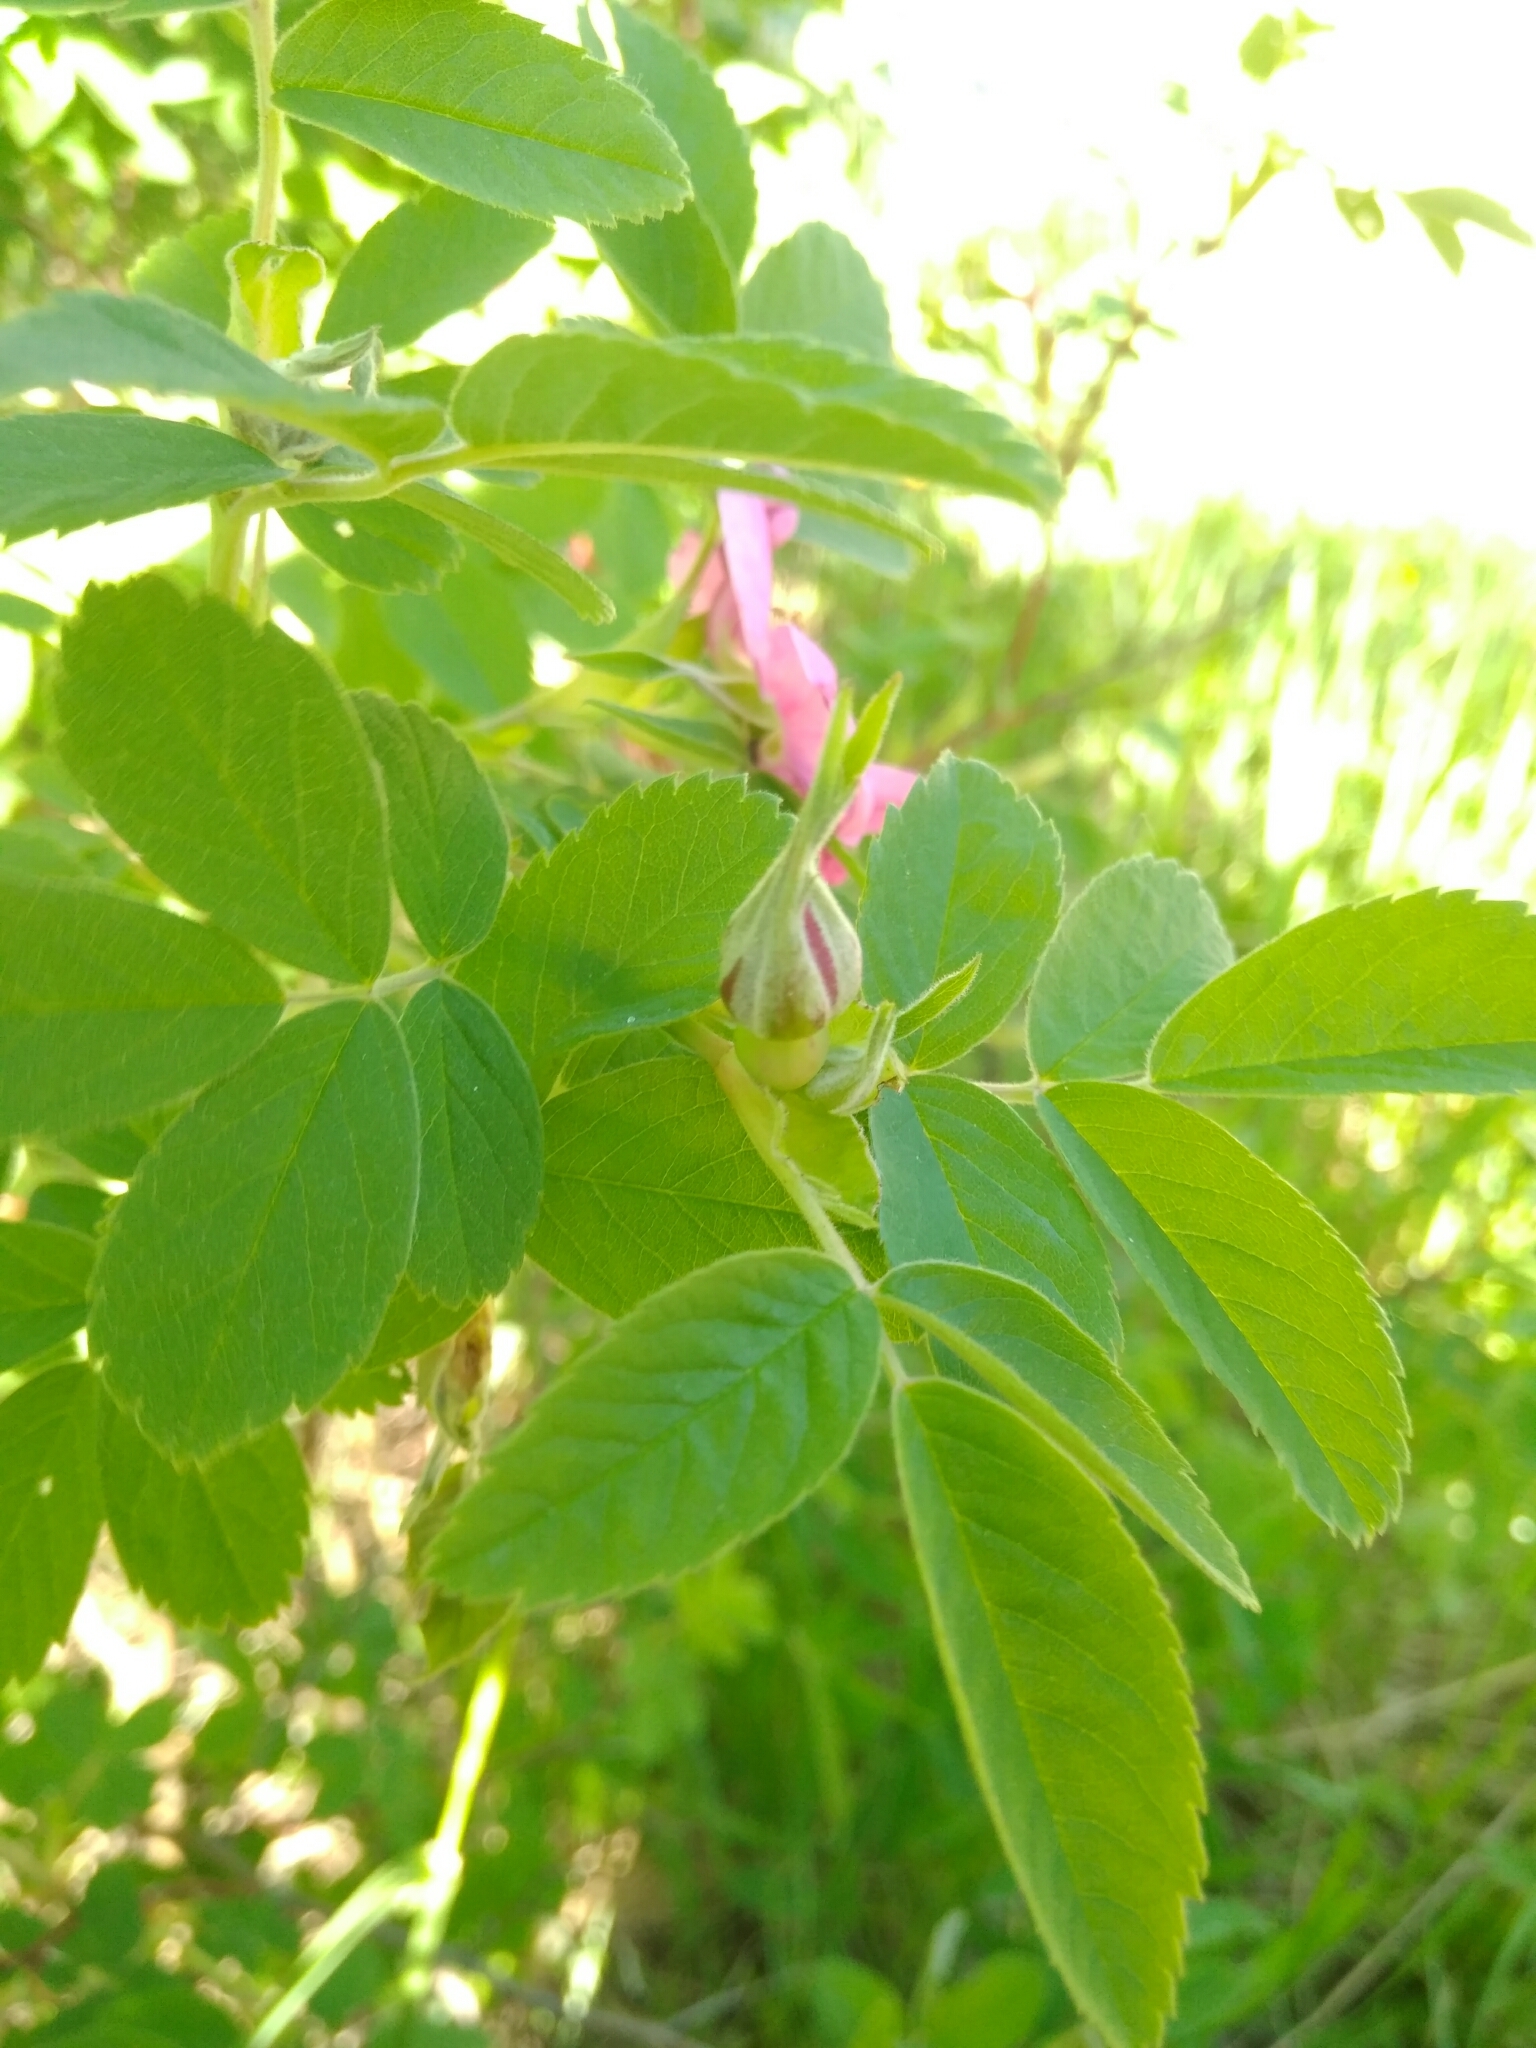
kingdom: Plantae
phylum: Tracheophyta
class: Magnoliopsida
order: Rosales
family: Rosaceae
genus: Rosa
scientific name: Rosa majalis
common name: Cinnamon rose
